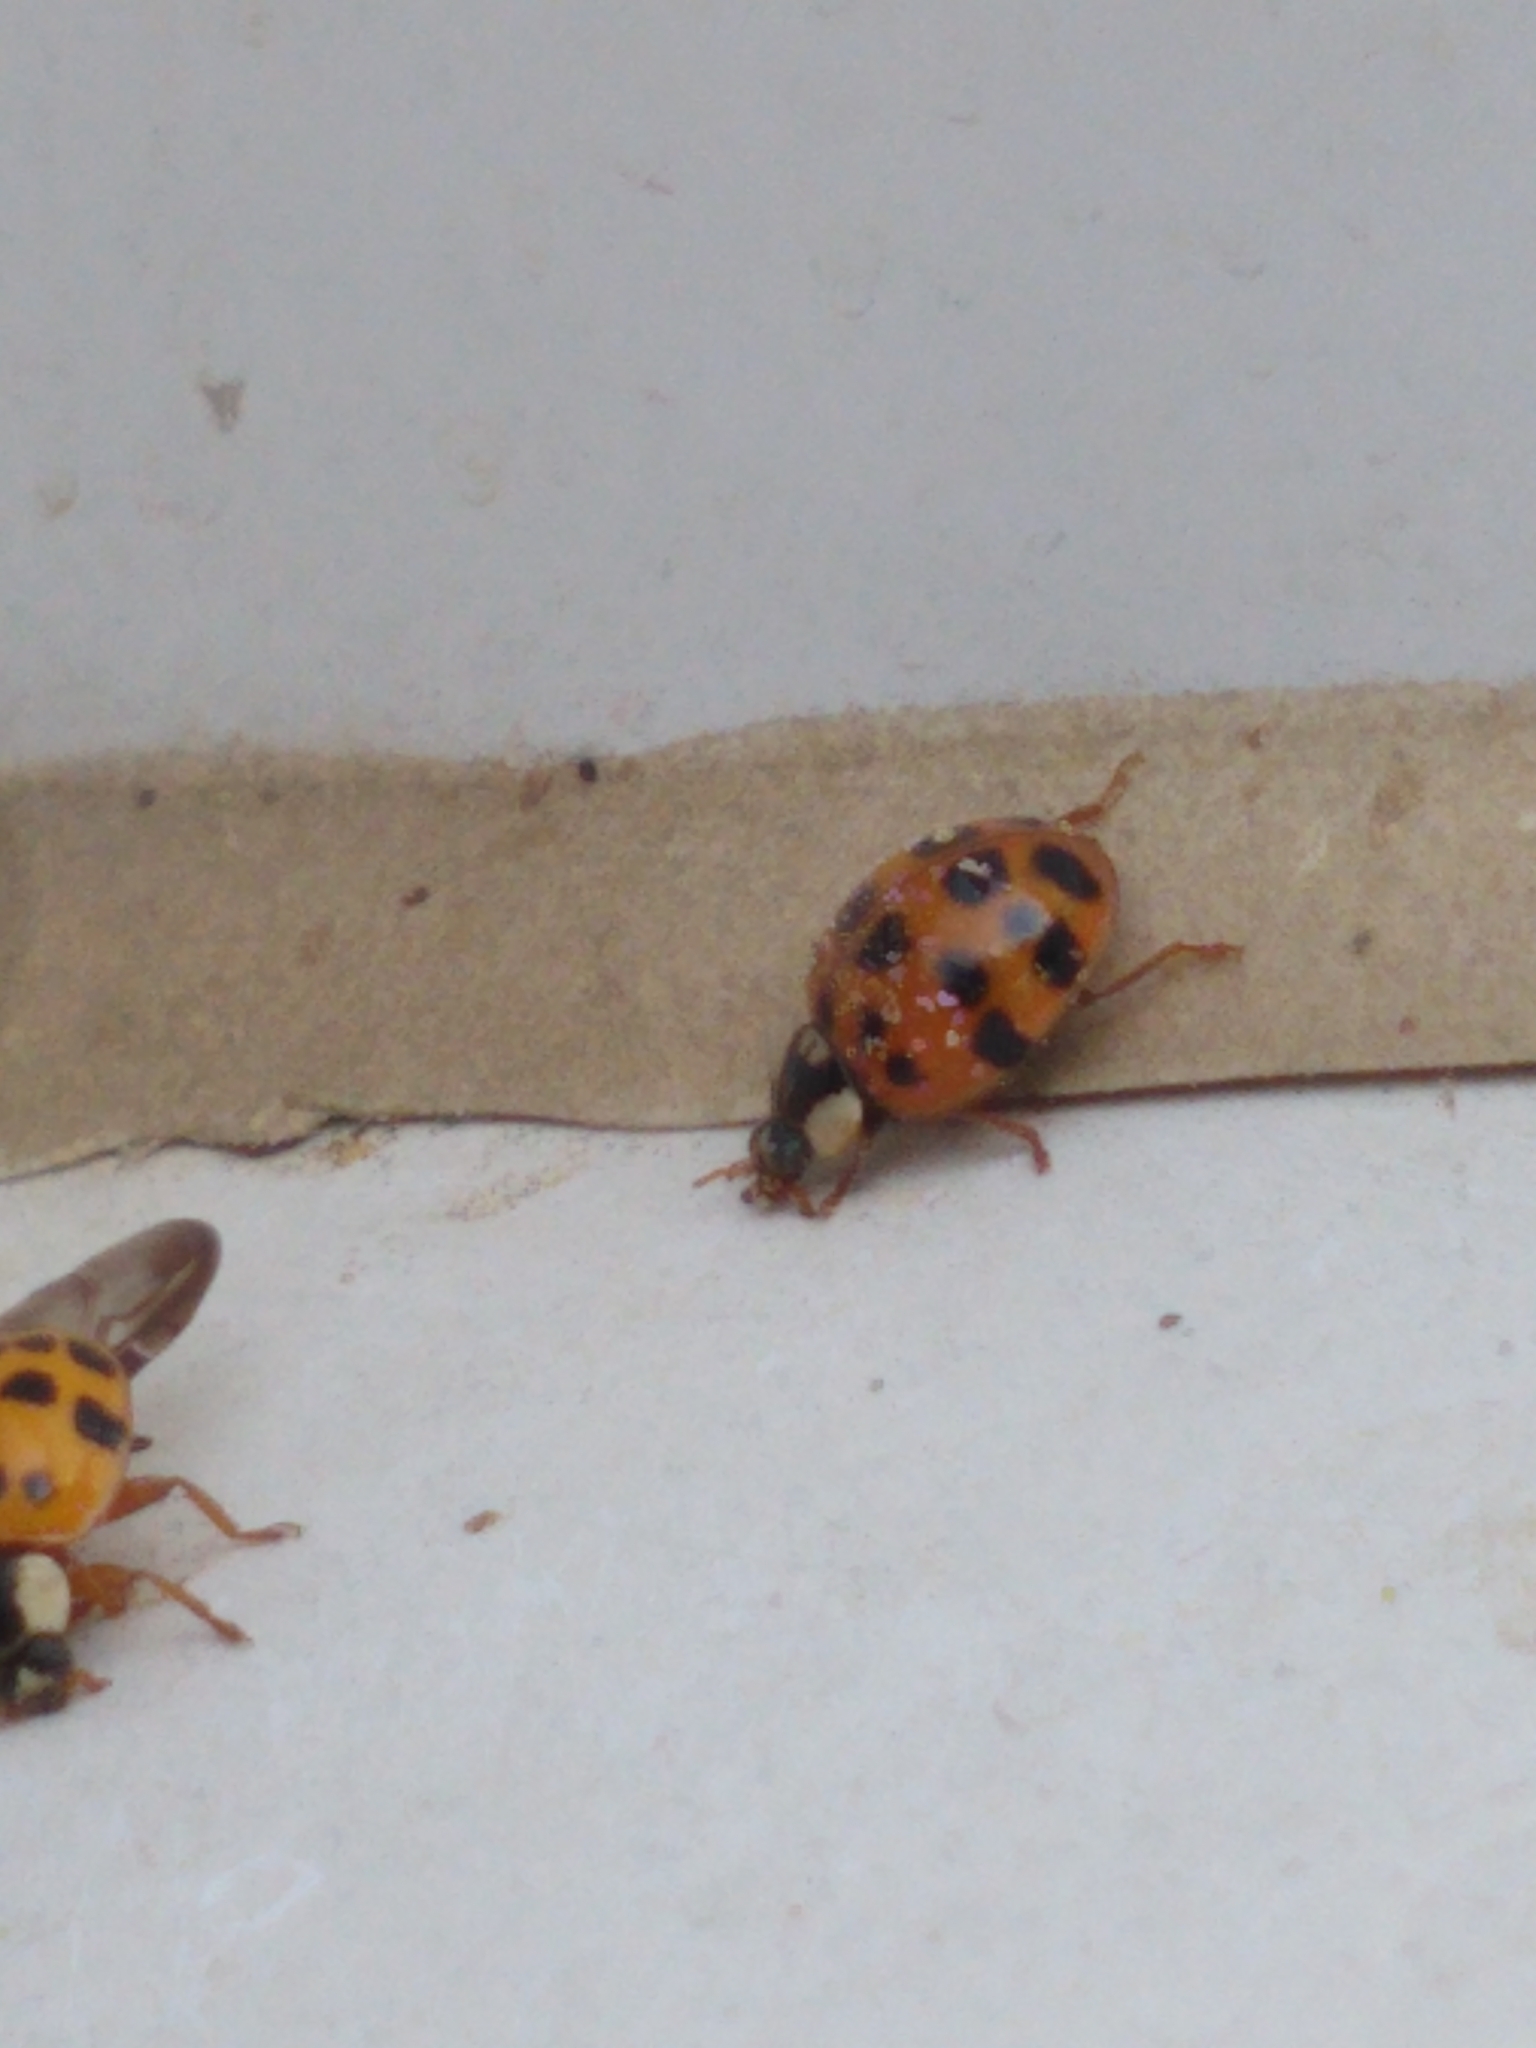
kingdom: Animalia
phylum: Arthropoda
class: Insecta
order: Coleoptera
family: Coccinellidae
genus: Harmonia
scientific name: Harmonia axyridis
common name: Harlequin ladybird
